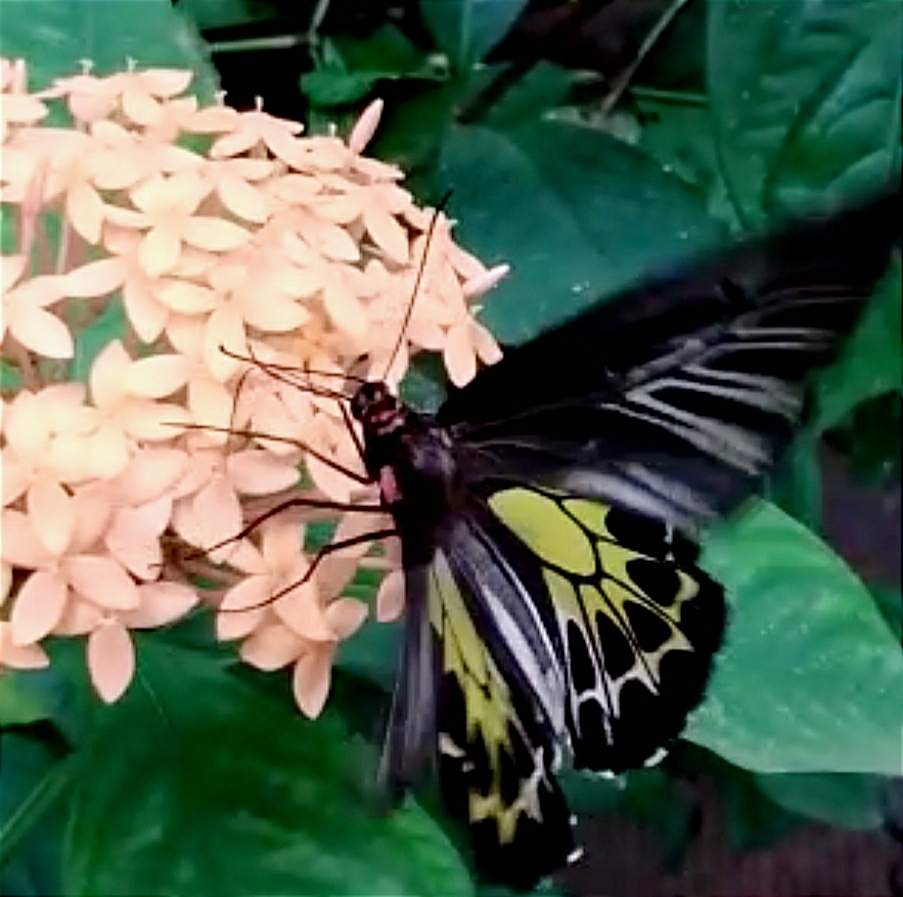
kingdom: Animalia
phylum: Arthropoda
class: Insecta
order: Lepidoptera
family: Papilionidae
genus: Troides
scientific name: Troides minos
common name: Malabar birdwing
